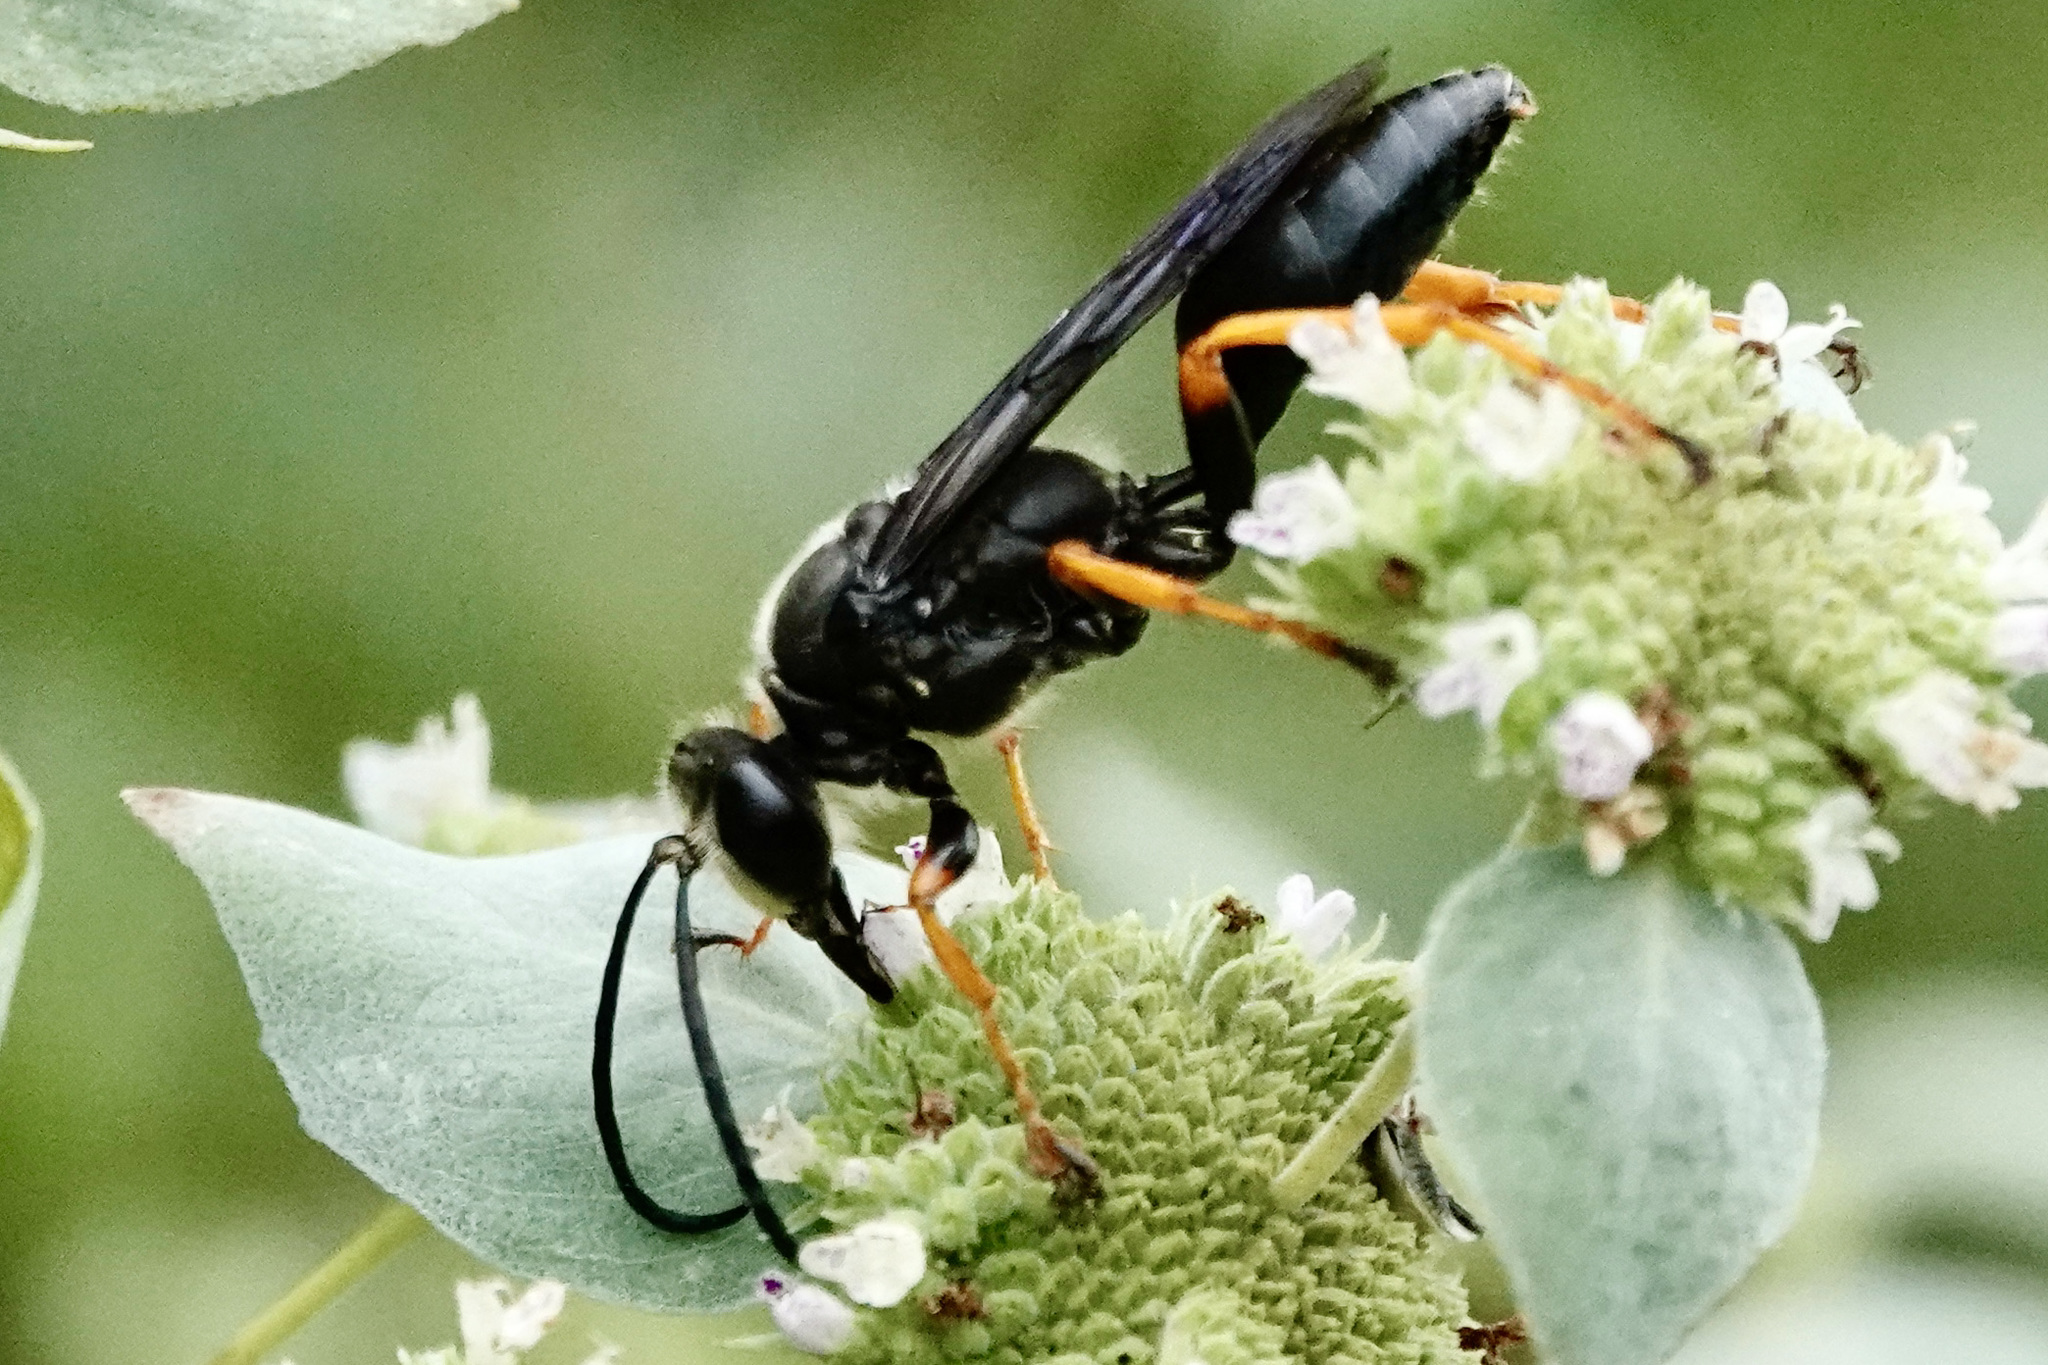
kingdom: Animalia
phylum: Arthropoda
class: Insecta
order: Hymenoptera
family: Sphecidae
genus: Sphex
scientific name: Sphex nudus
